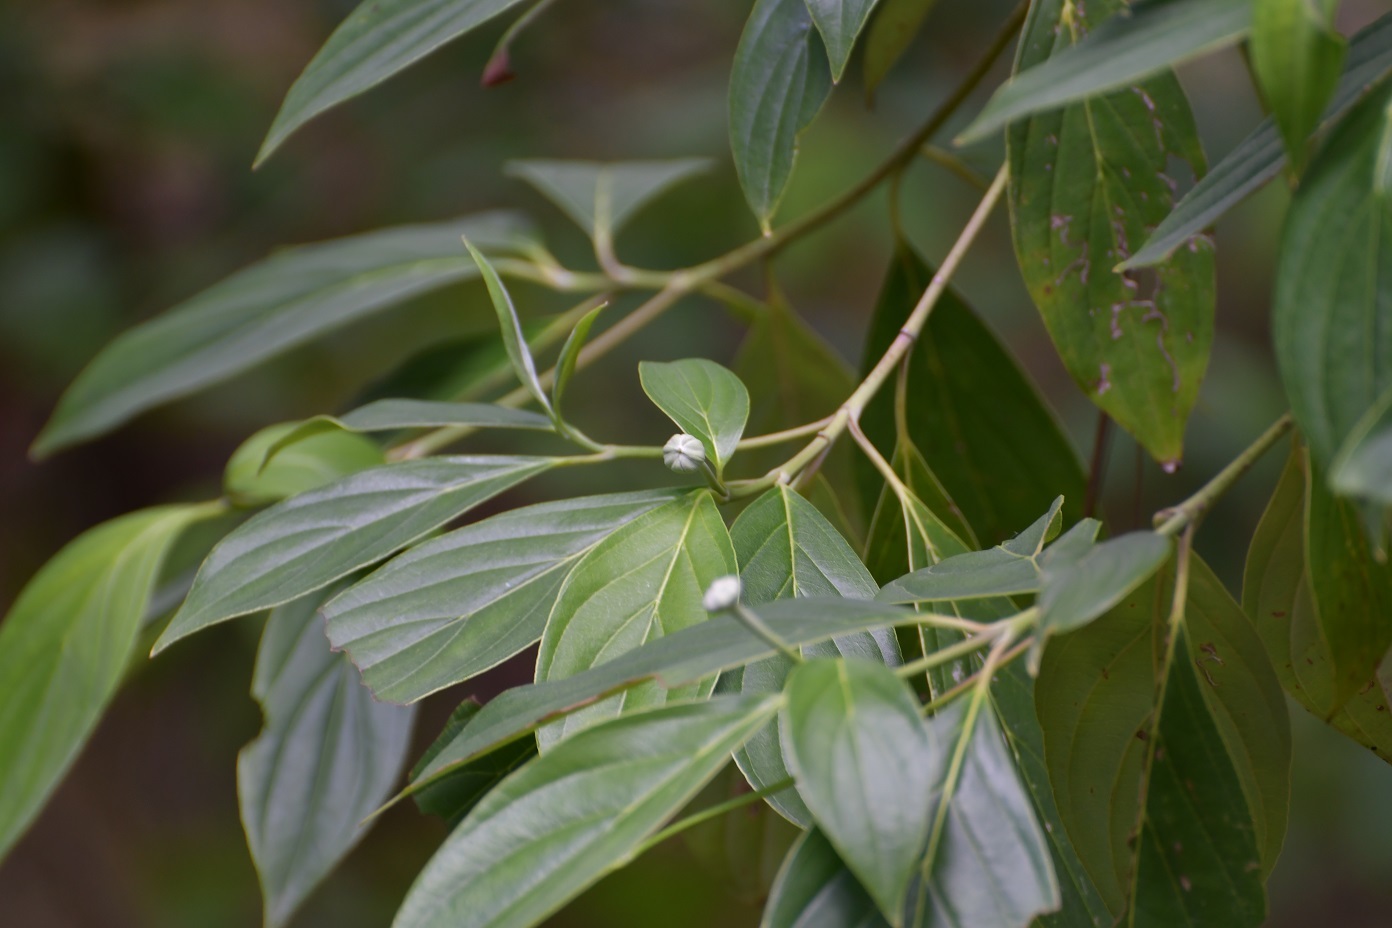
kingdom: Plantae
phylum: Tracheophyta
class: Magnoliopsida
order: Cornales
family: Cornaceae
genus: Cornus
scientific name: Cornus disciflora
